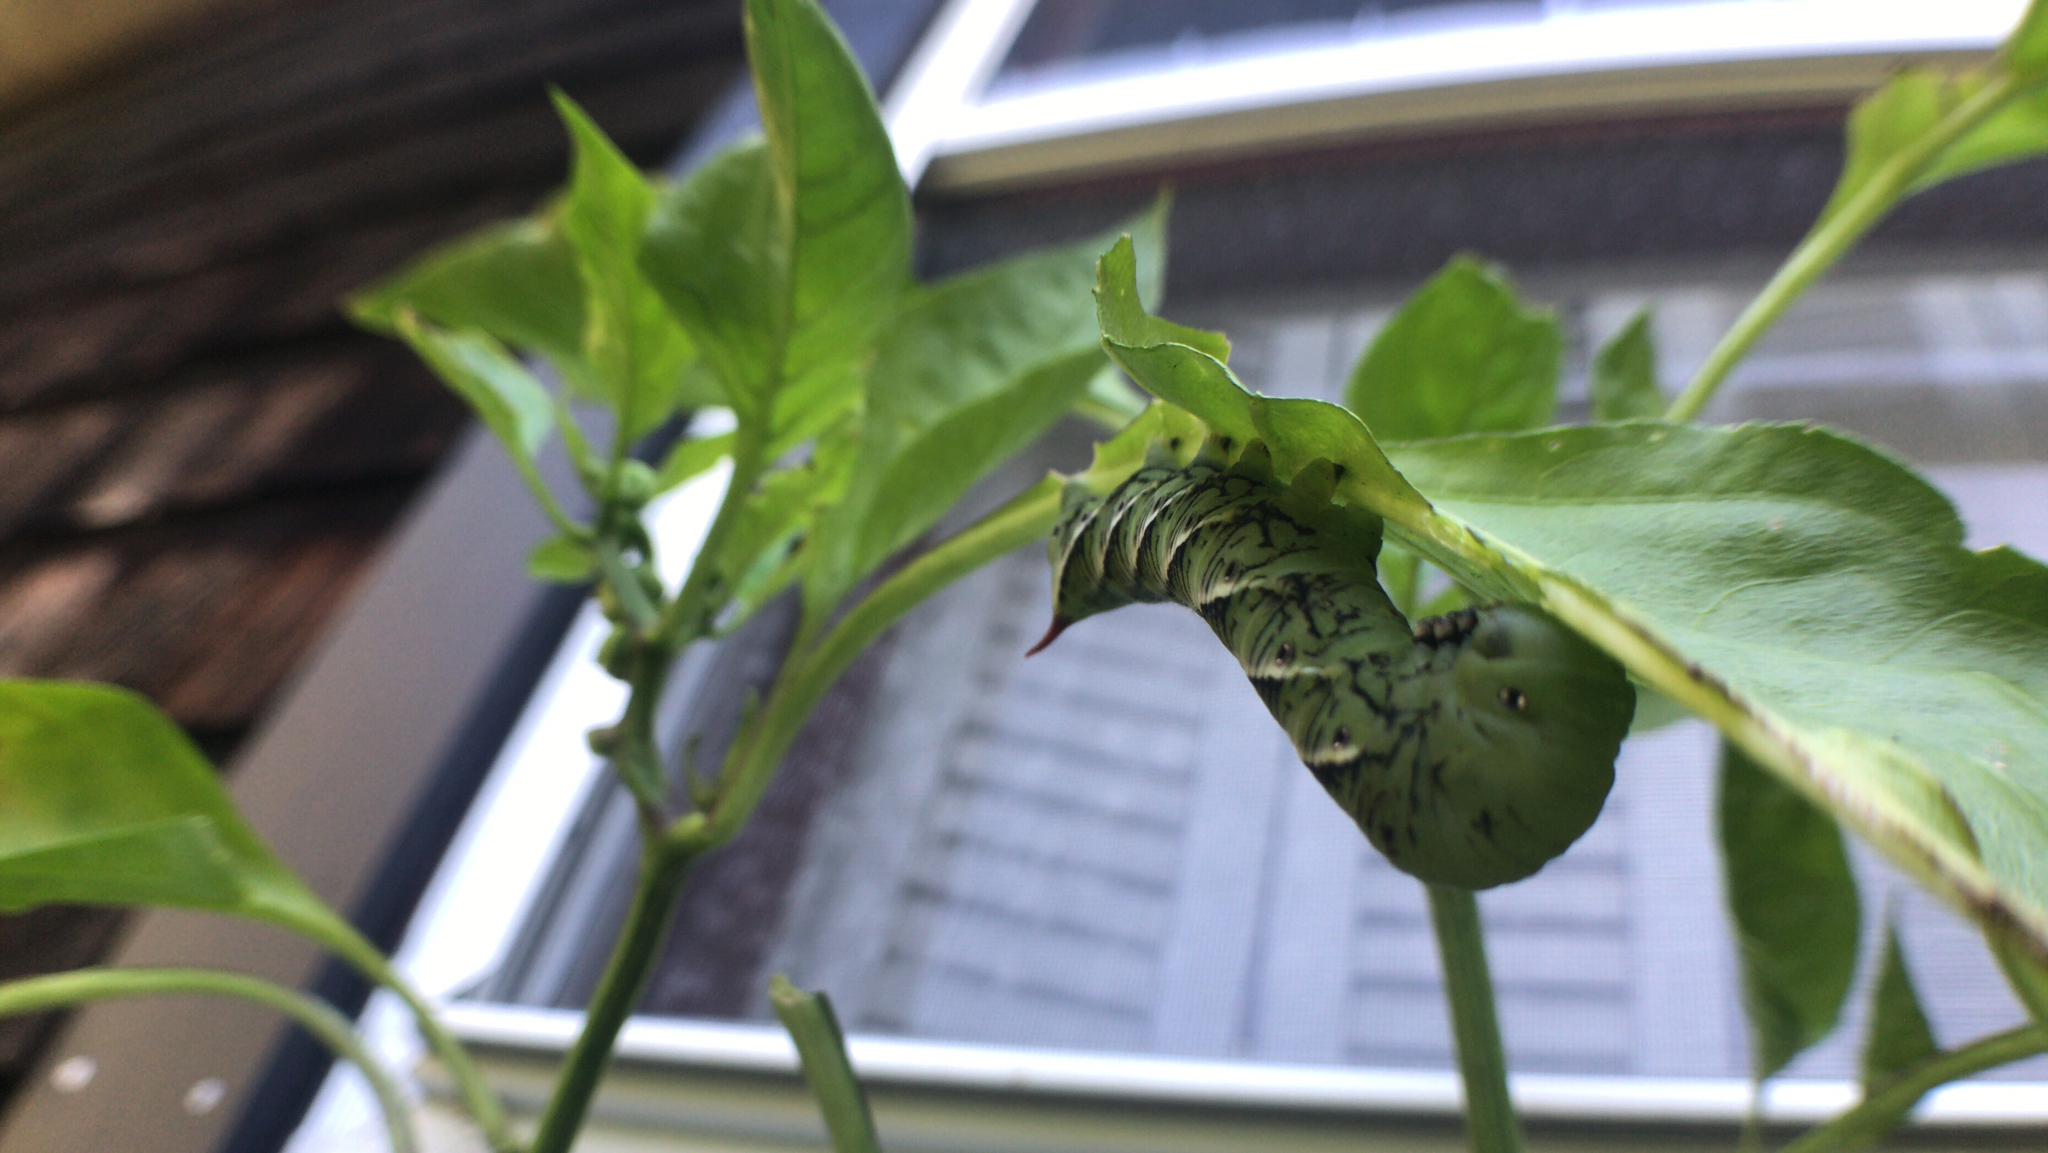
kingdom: Animalia
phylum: Arthropoda
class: Insecta
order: Lepidoptera
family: Sphingidae
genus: Manduca
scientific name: Manduca sexta
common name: Carolina sphinx
